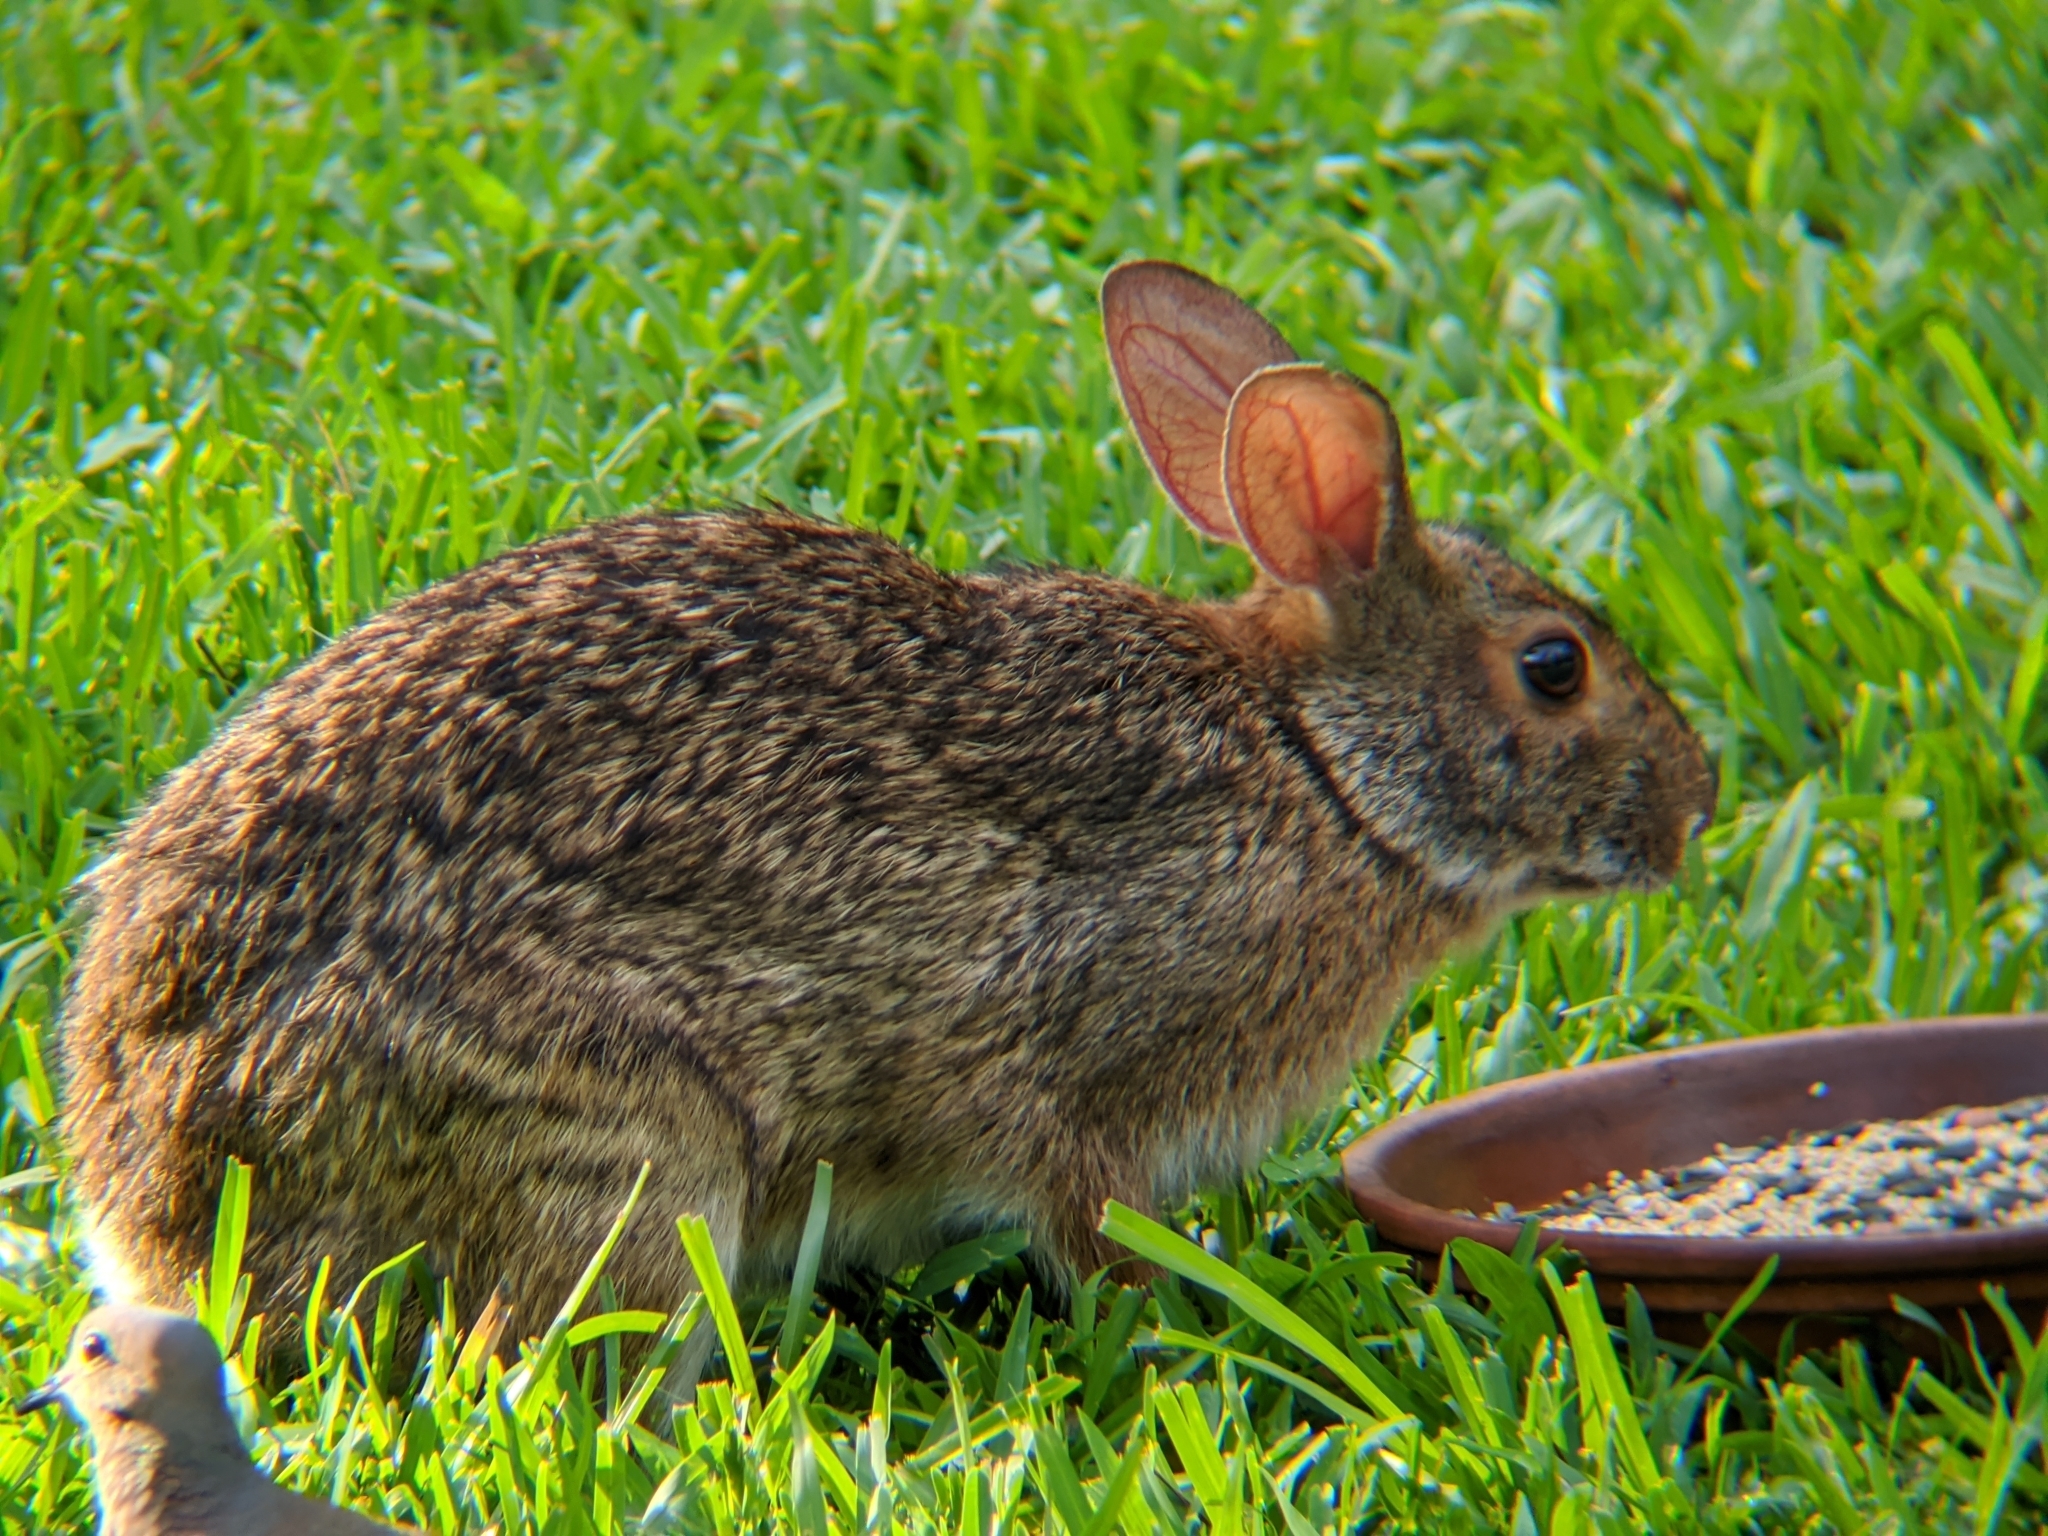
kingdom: Animalia
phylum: Chordata
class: Mammalia
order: Lagomorpha
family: Leporidae
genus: Sylvilagus
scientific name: Sylvilagus aquaticus
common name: Swamp rabbit
